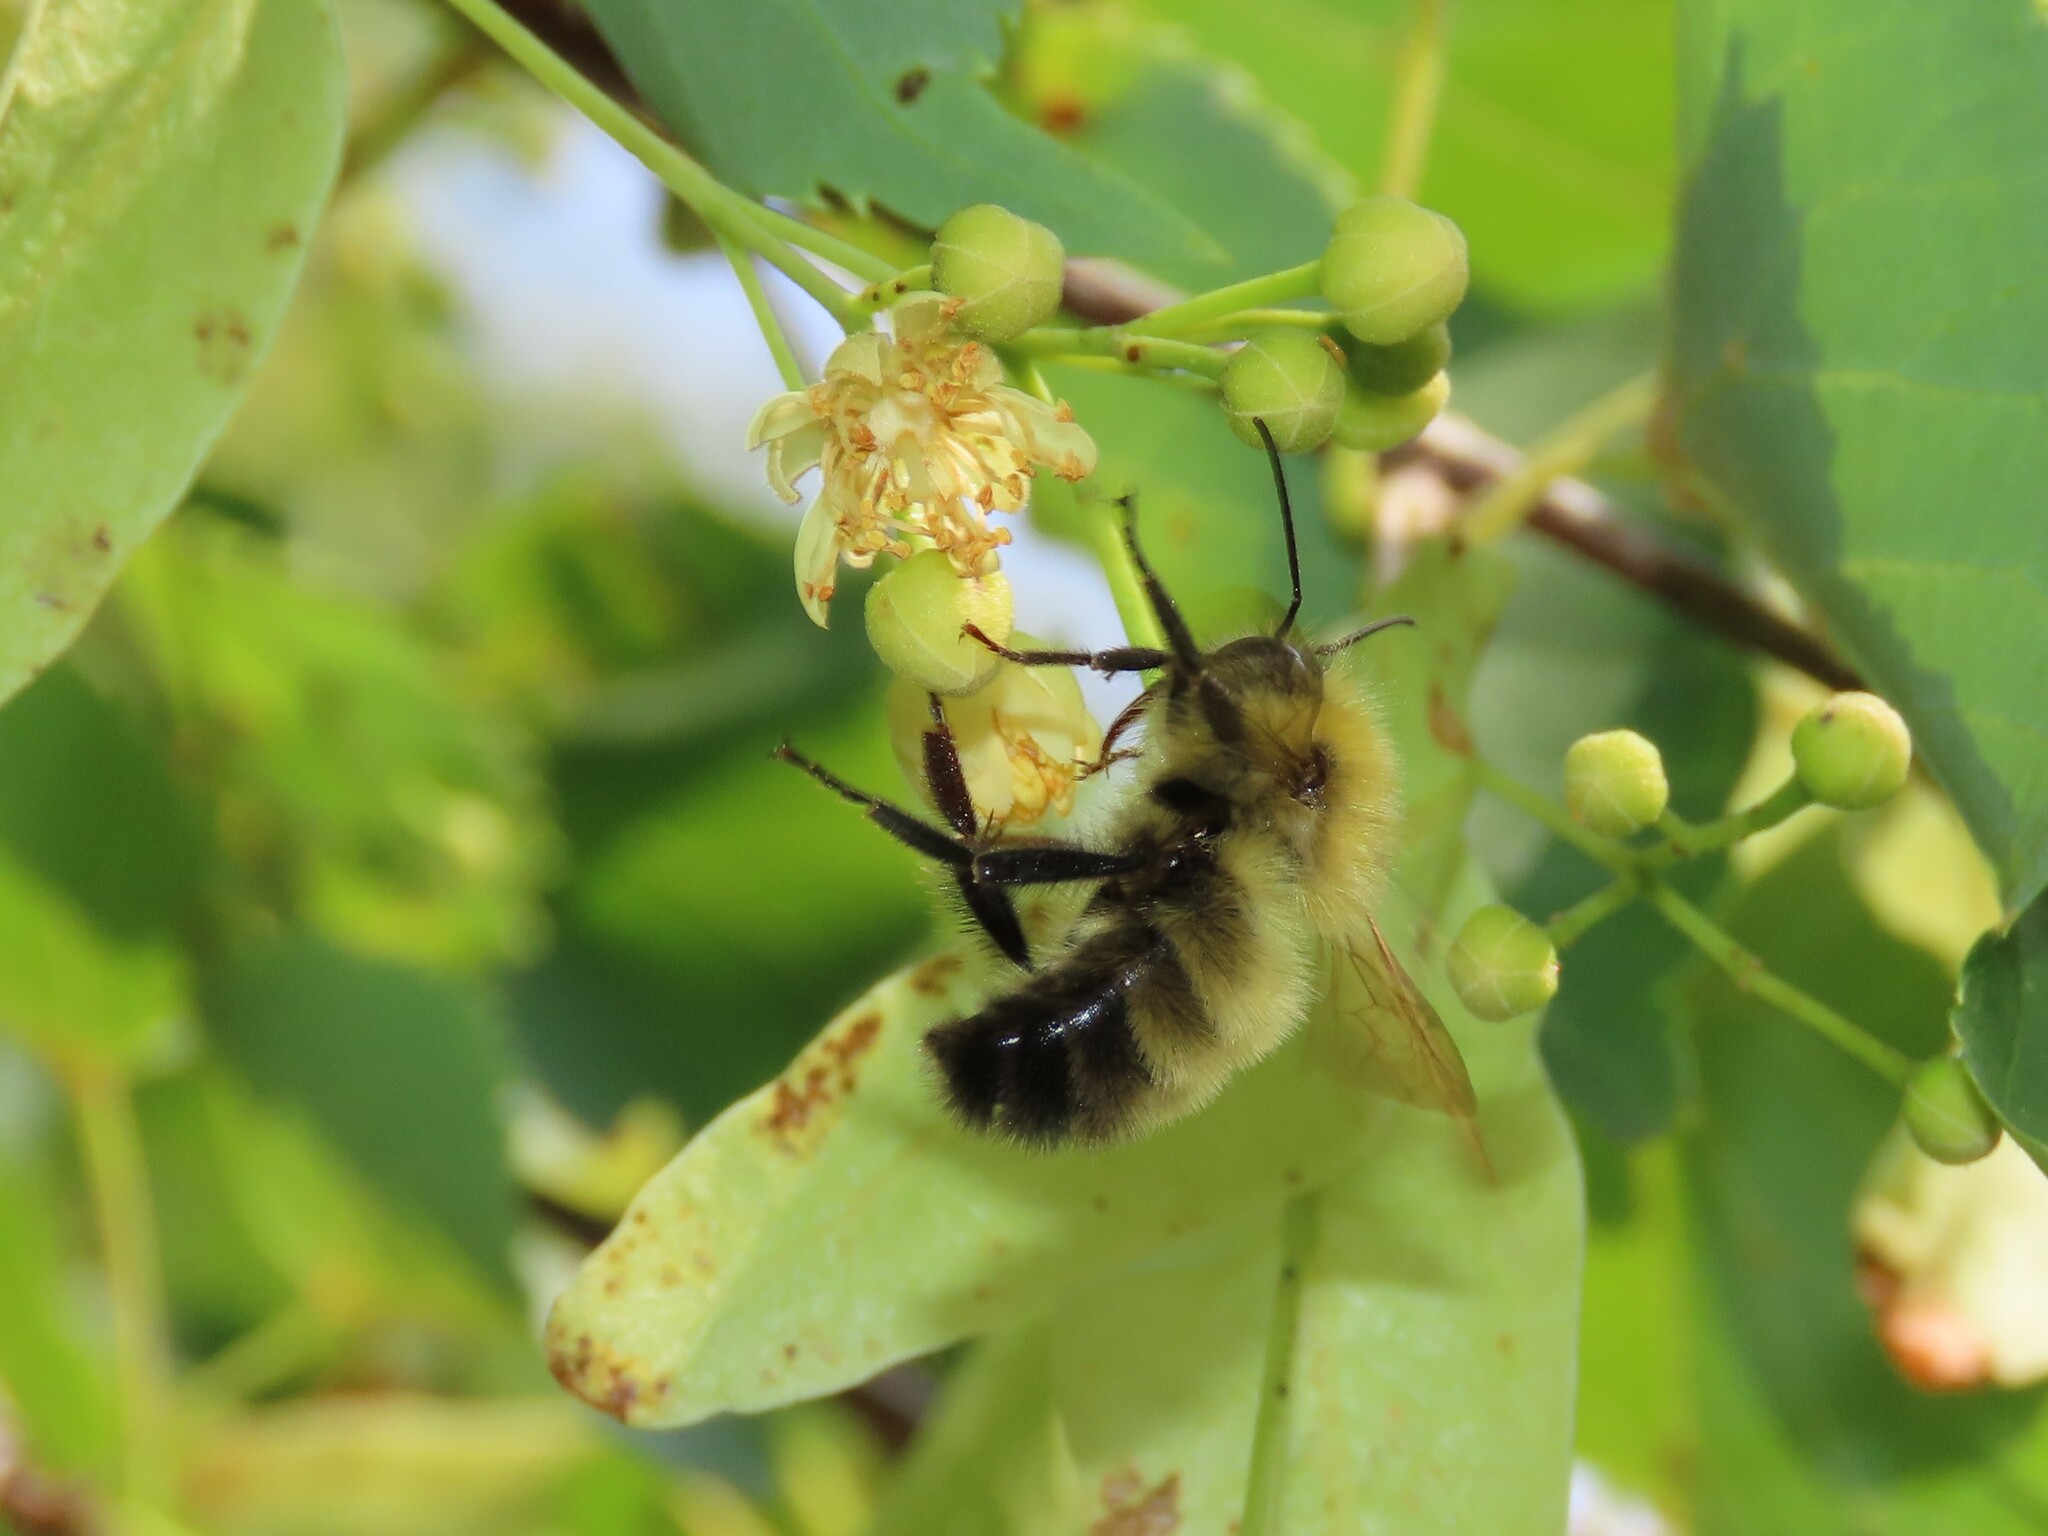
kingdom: Animalia
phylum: Arthropoda
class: Insecta
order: Hymenoptera
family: Apidae
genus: Bombus
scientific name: Bombus perplexus
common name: Confusing bumble bee
